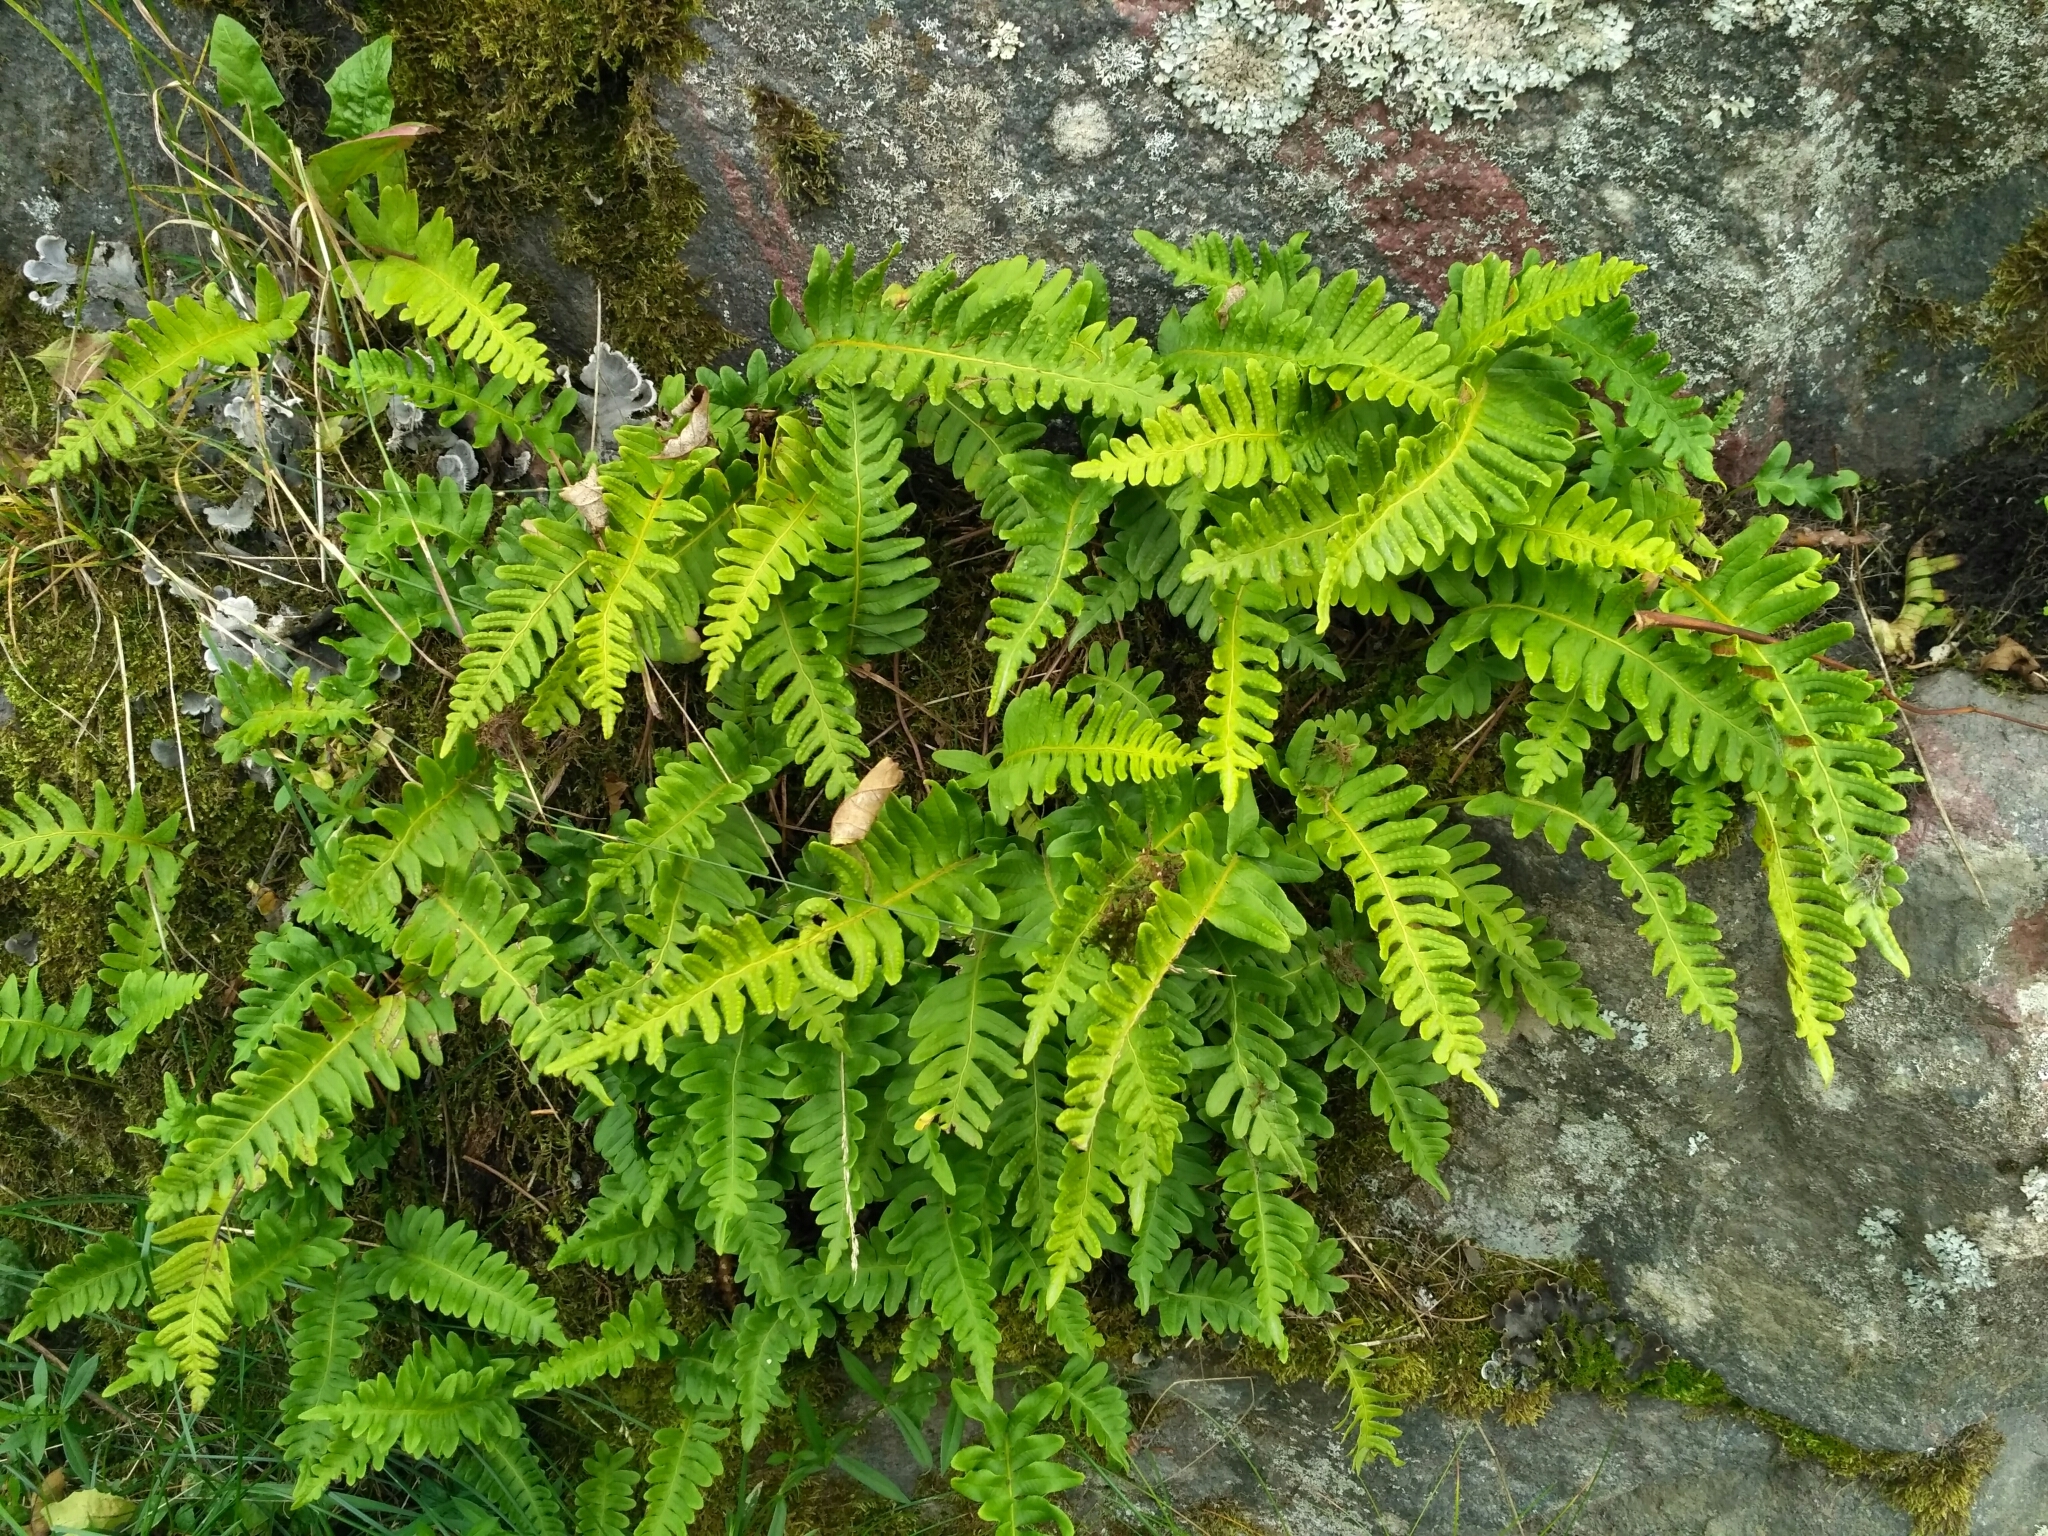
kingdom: Plantae
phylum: Tracheophyta
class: Polypodiopsida
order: Polypodiales
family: Polypodiaceae
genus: Polypodium
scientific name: Polypodium vulgare
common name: Common polypody
